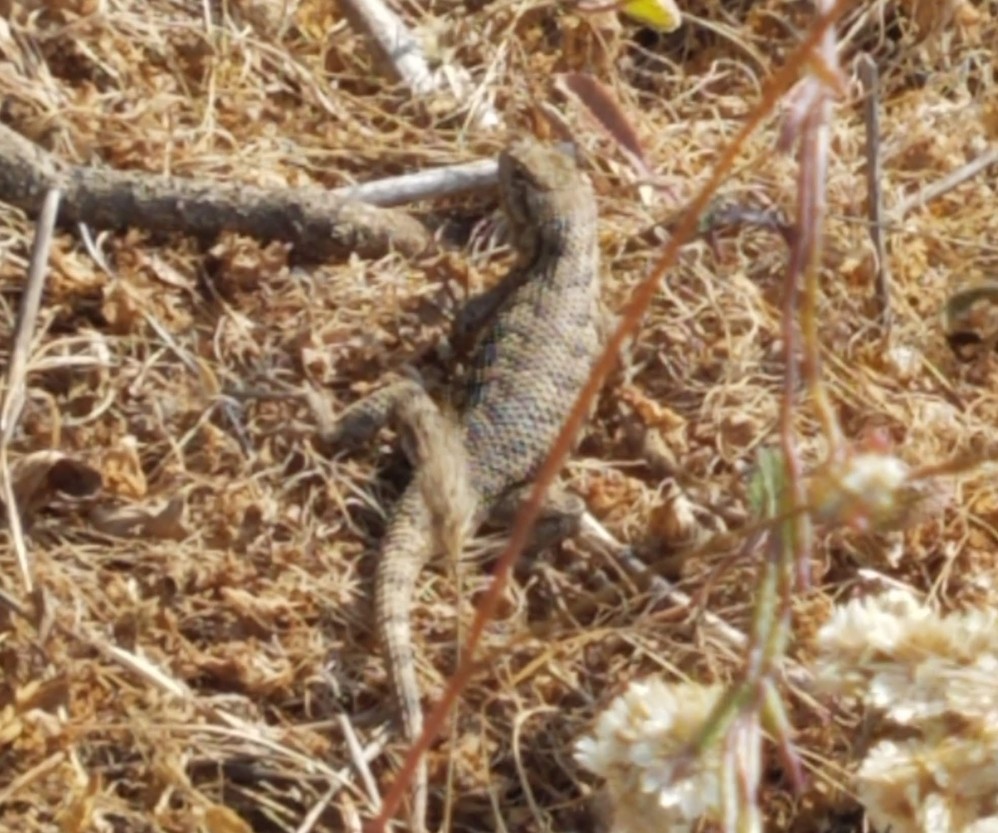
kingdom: Animalia
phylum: Chordata
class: Squamata
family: Phrynosomatidae
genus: Sceloporus
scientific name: Sceloporus occidentalis
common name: Western fence lizard
